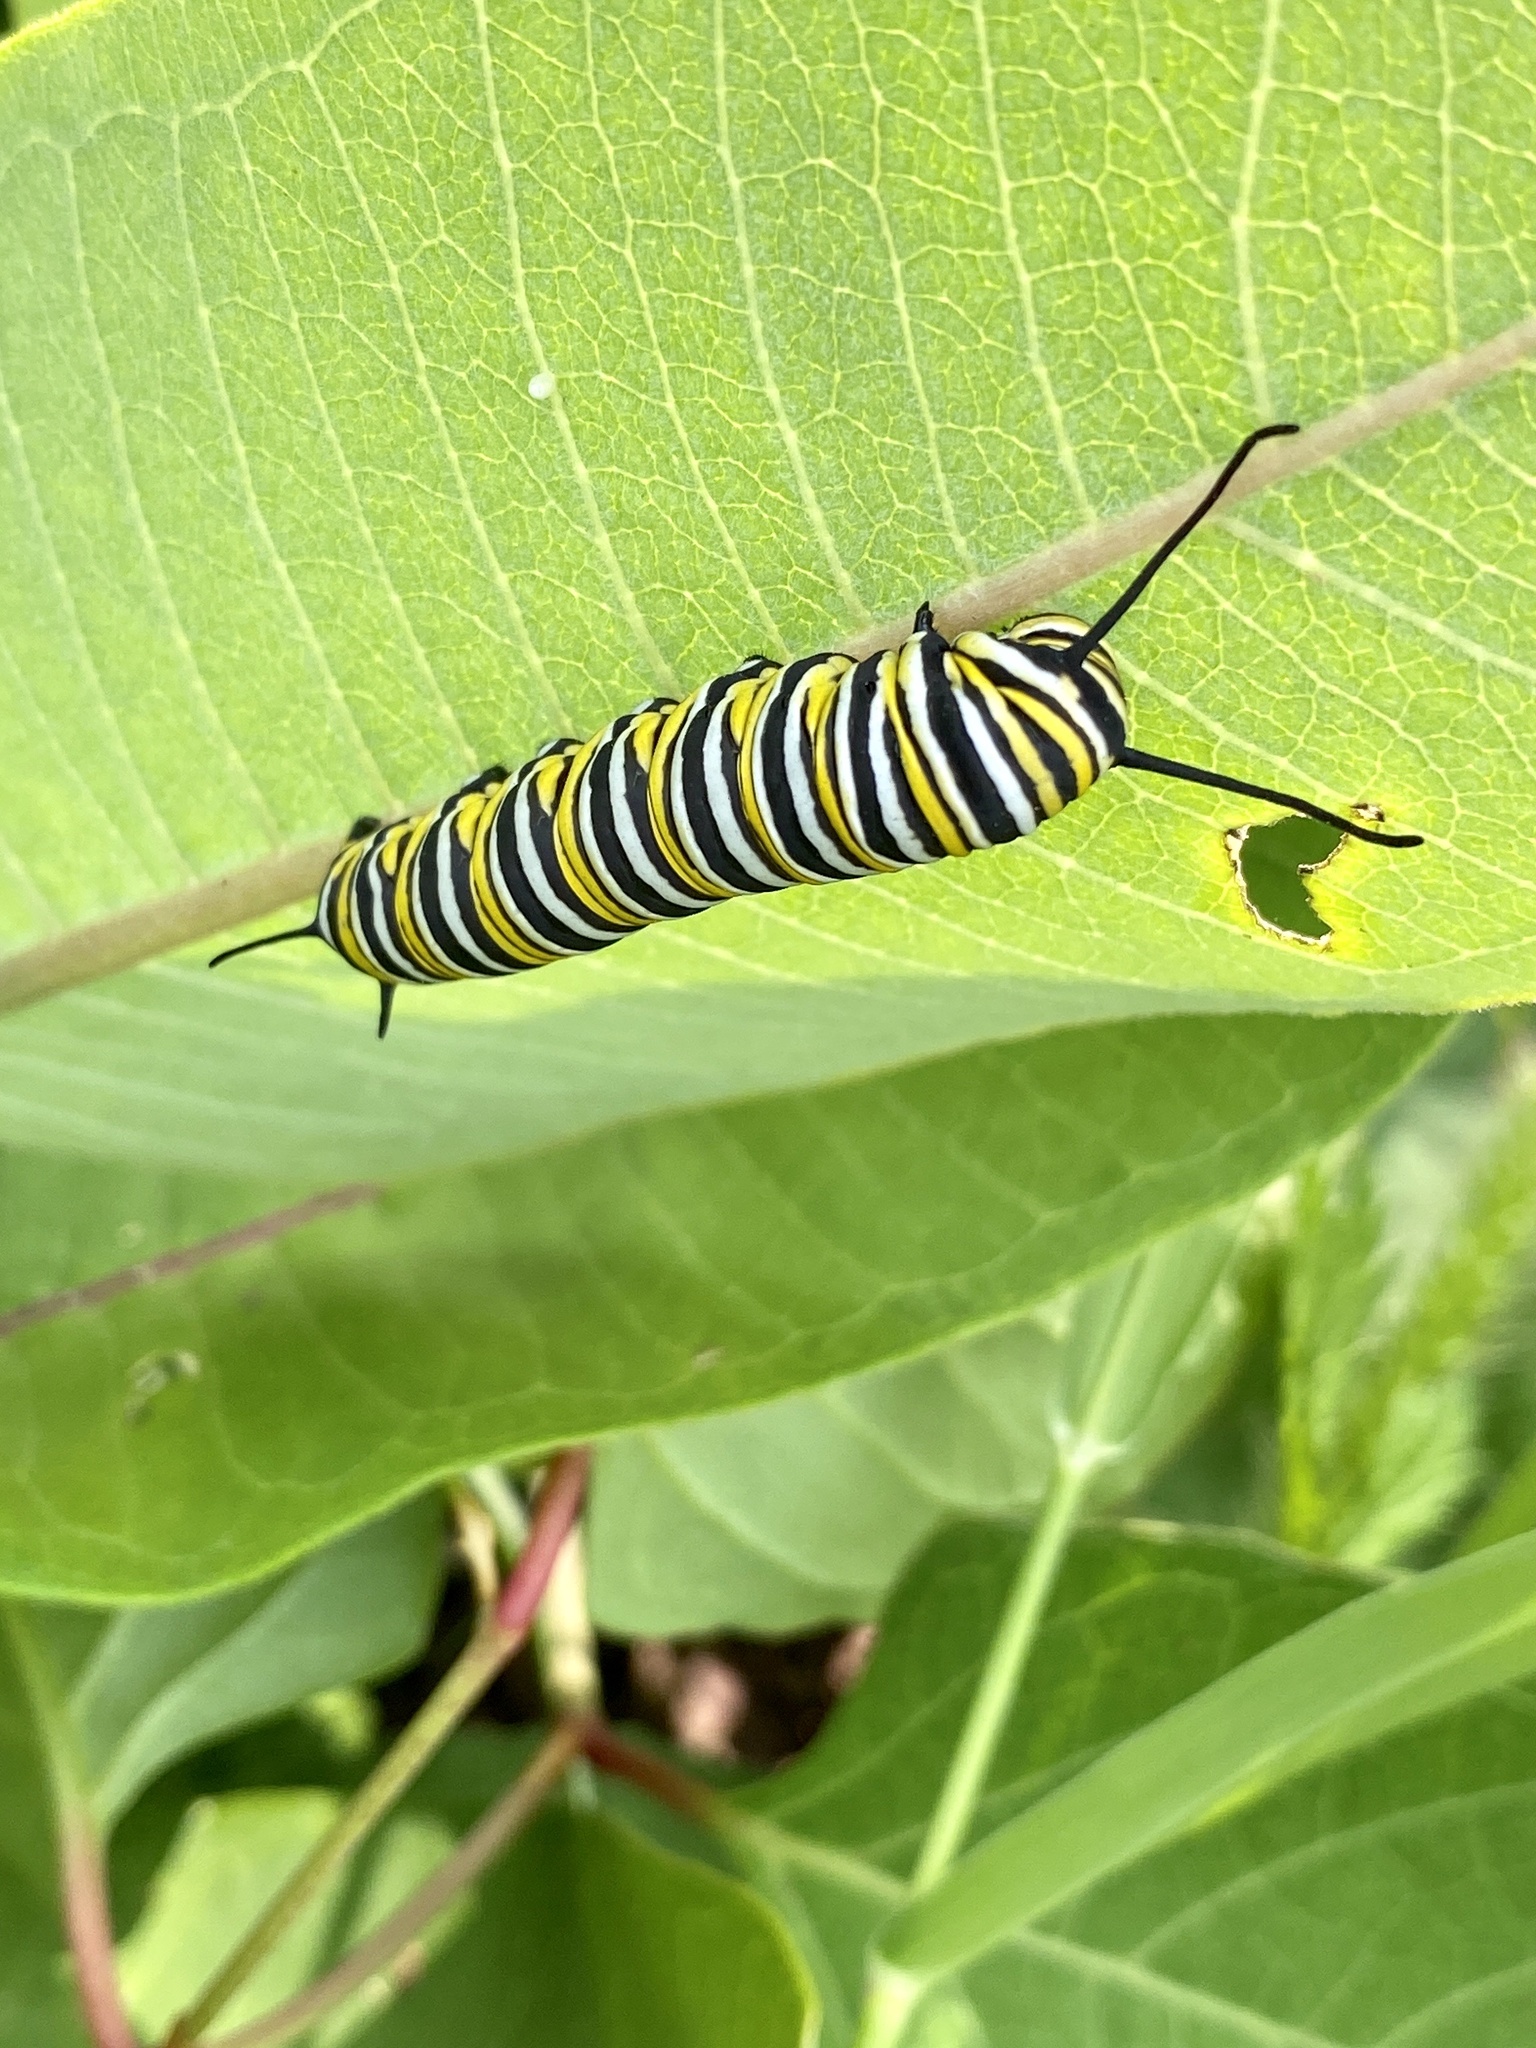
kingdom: Animalia
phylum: Arthropoda
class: Insecta
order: Lepidoptera
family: Nymphalidae
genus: Danaus
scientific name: Danaus plexippus
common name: Monarch
